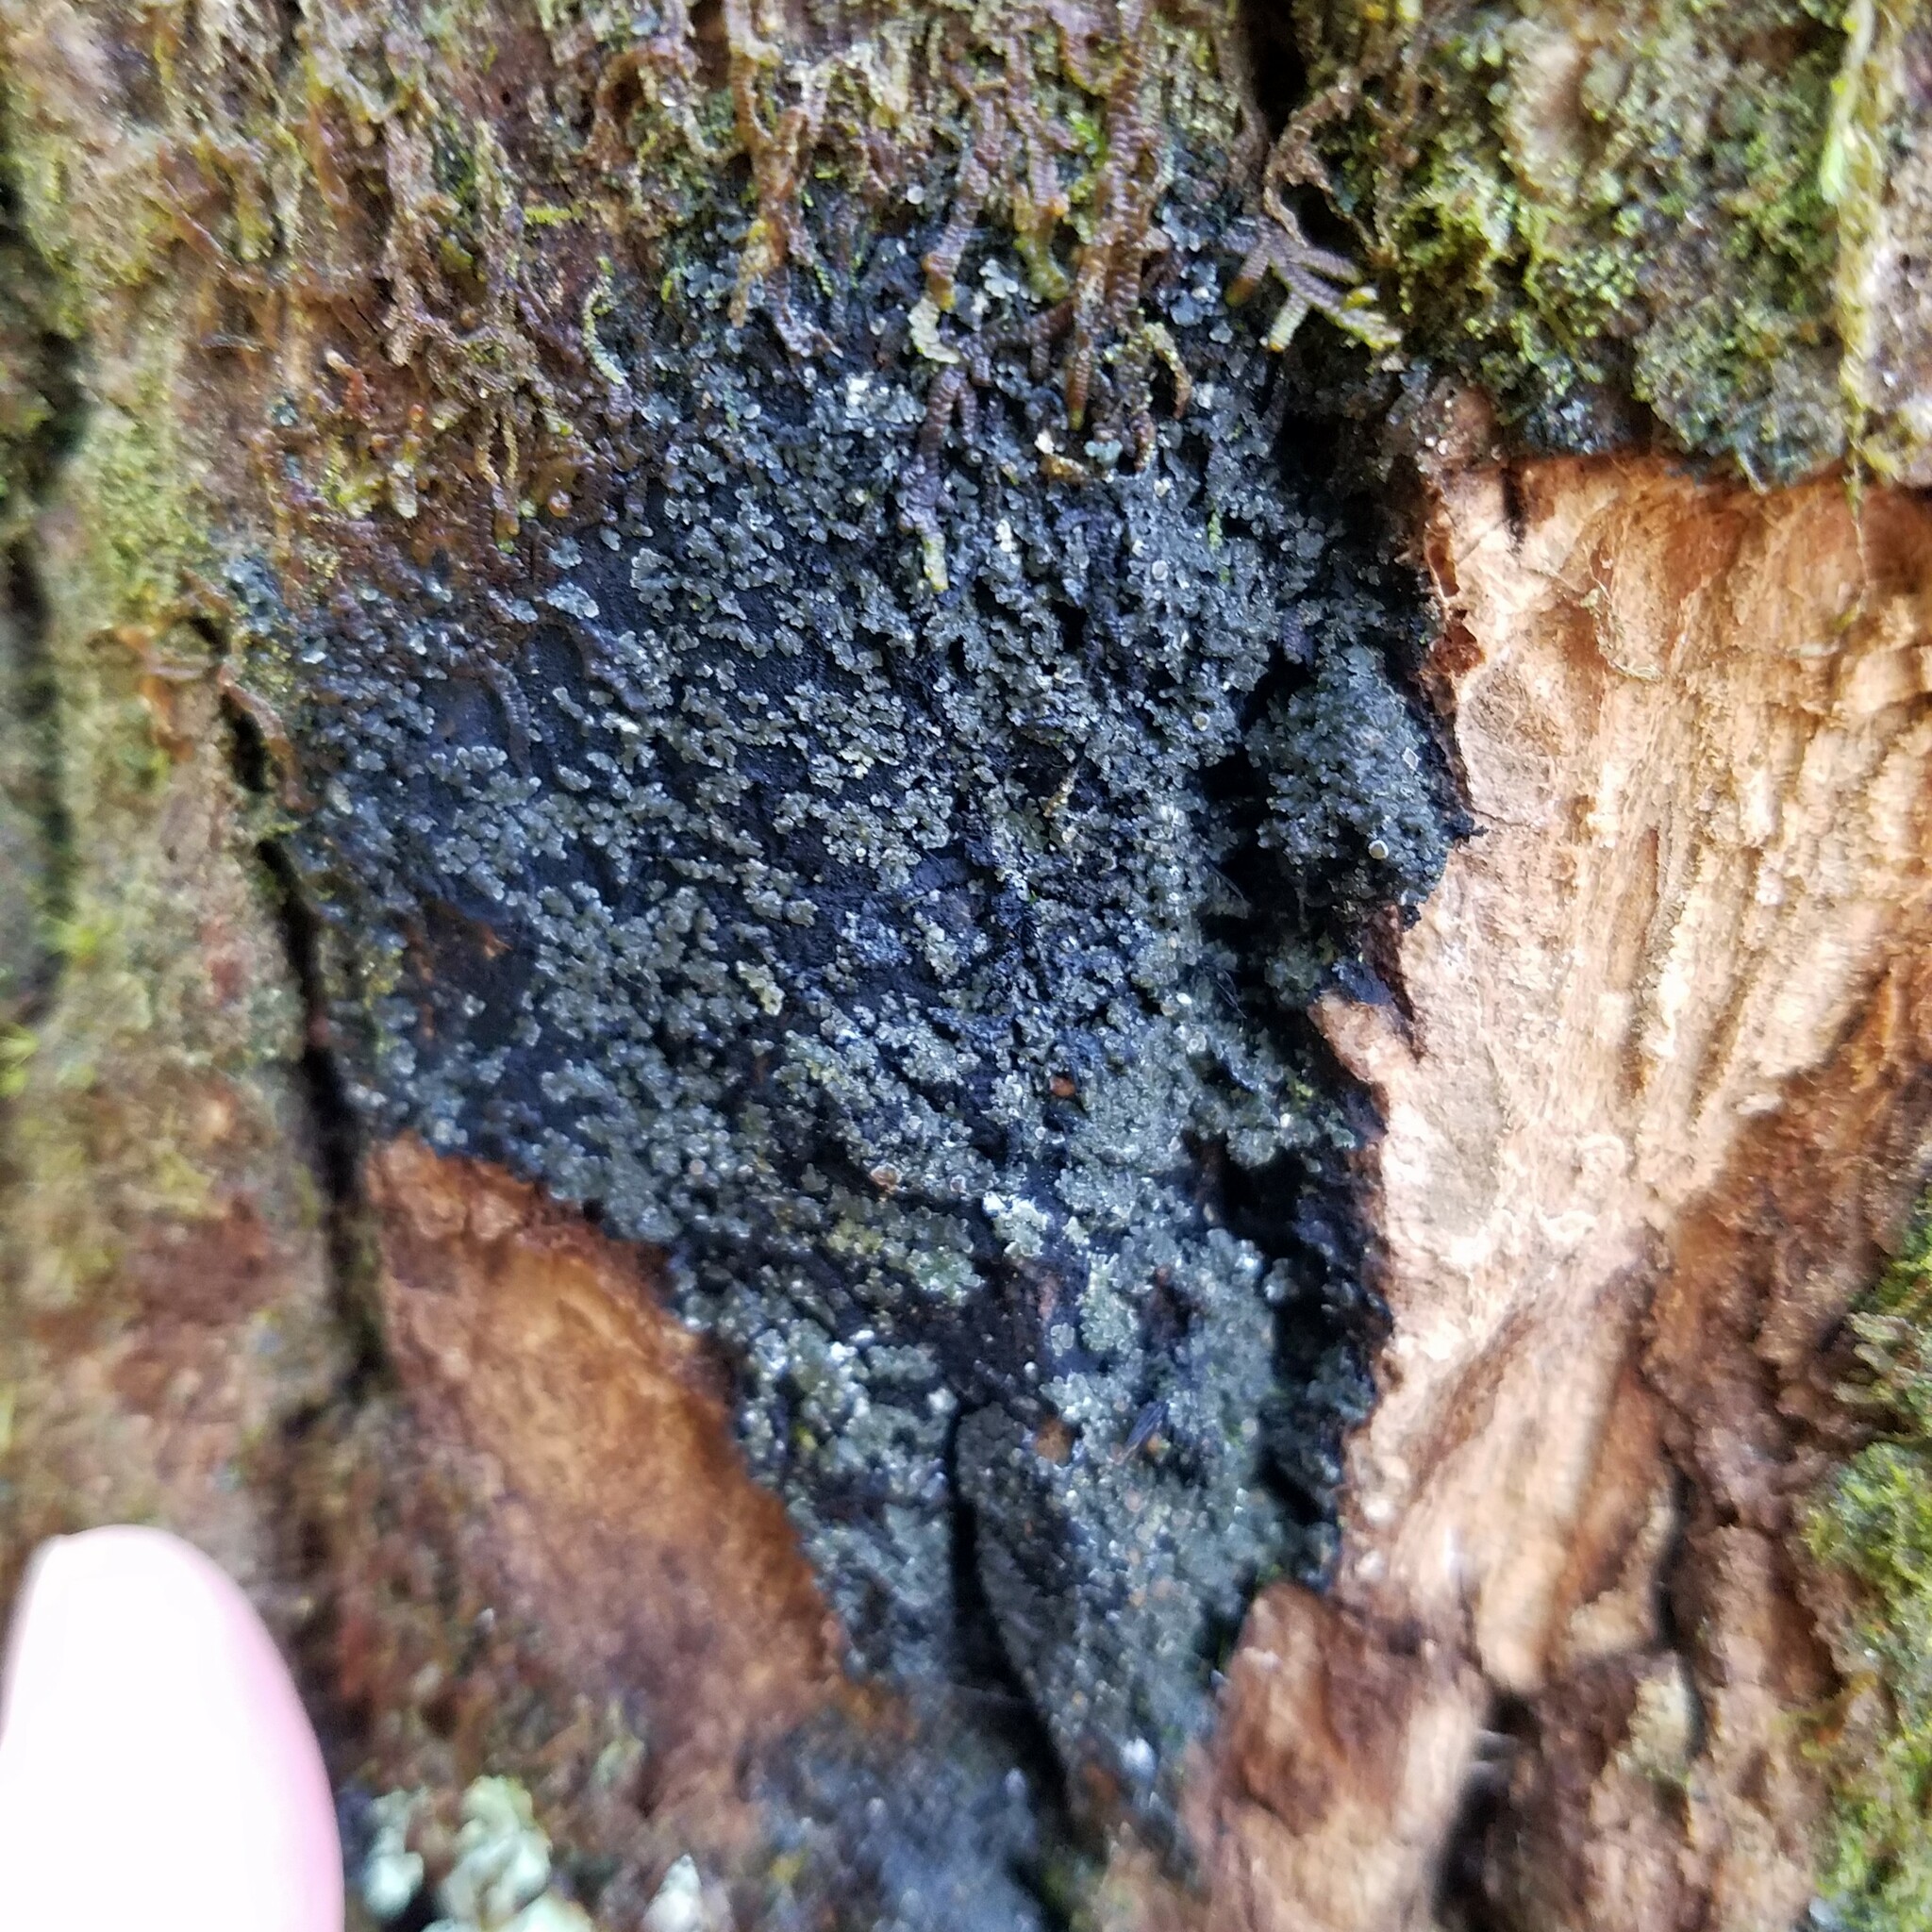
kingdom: Fungi
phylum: Ascomycota
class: Lecanoromycetes
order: Peltigerales
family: Pannariaceae
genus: Fuscopannaria
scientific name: Fuscopannaria leucosticta
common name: Rimmed shingle lichen
